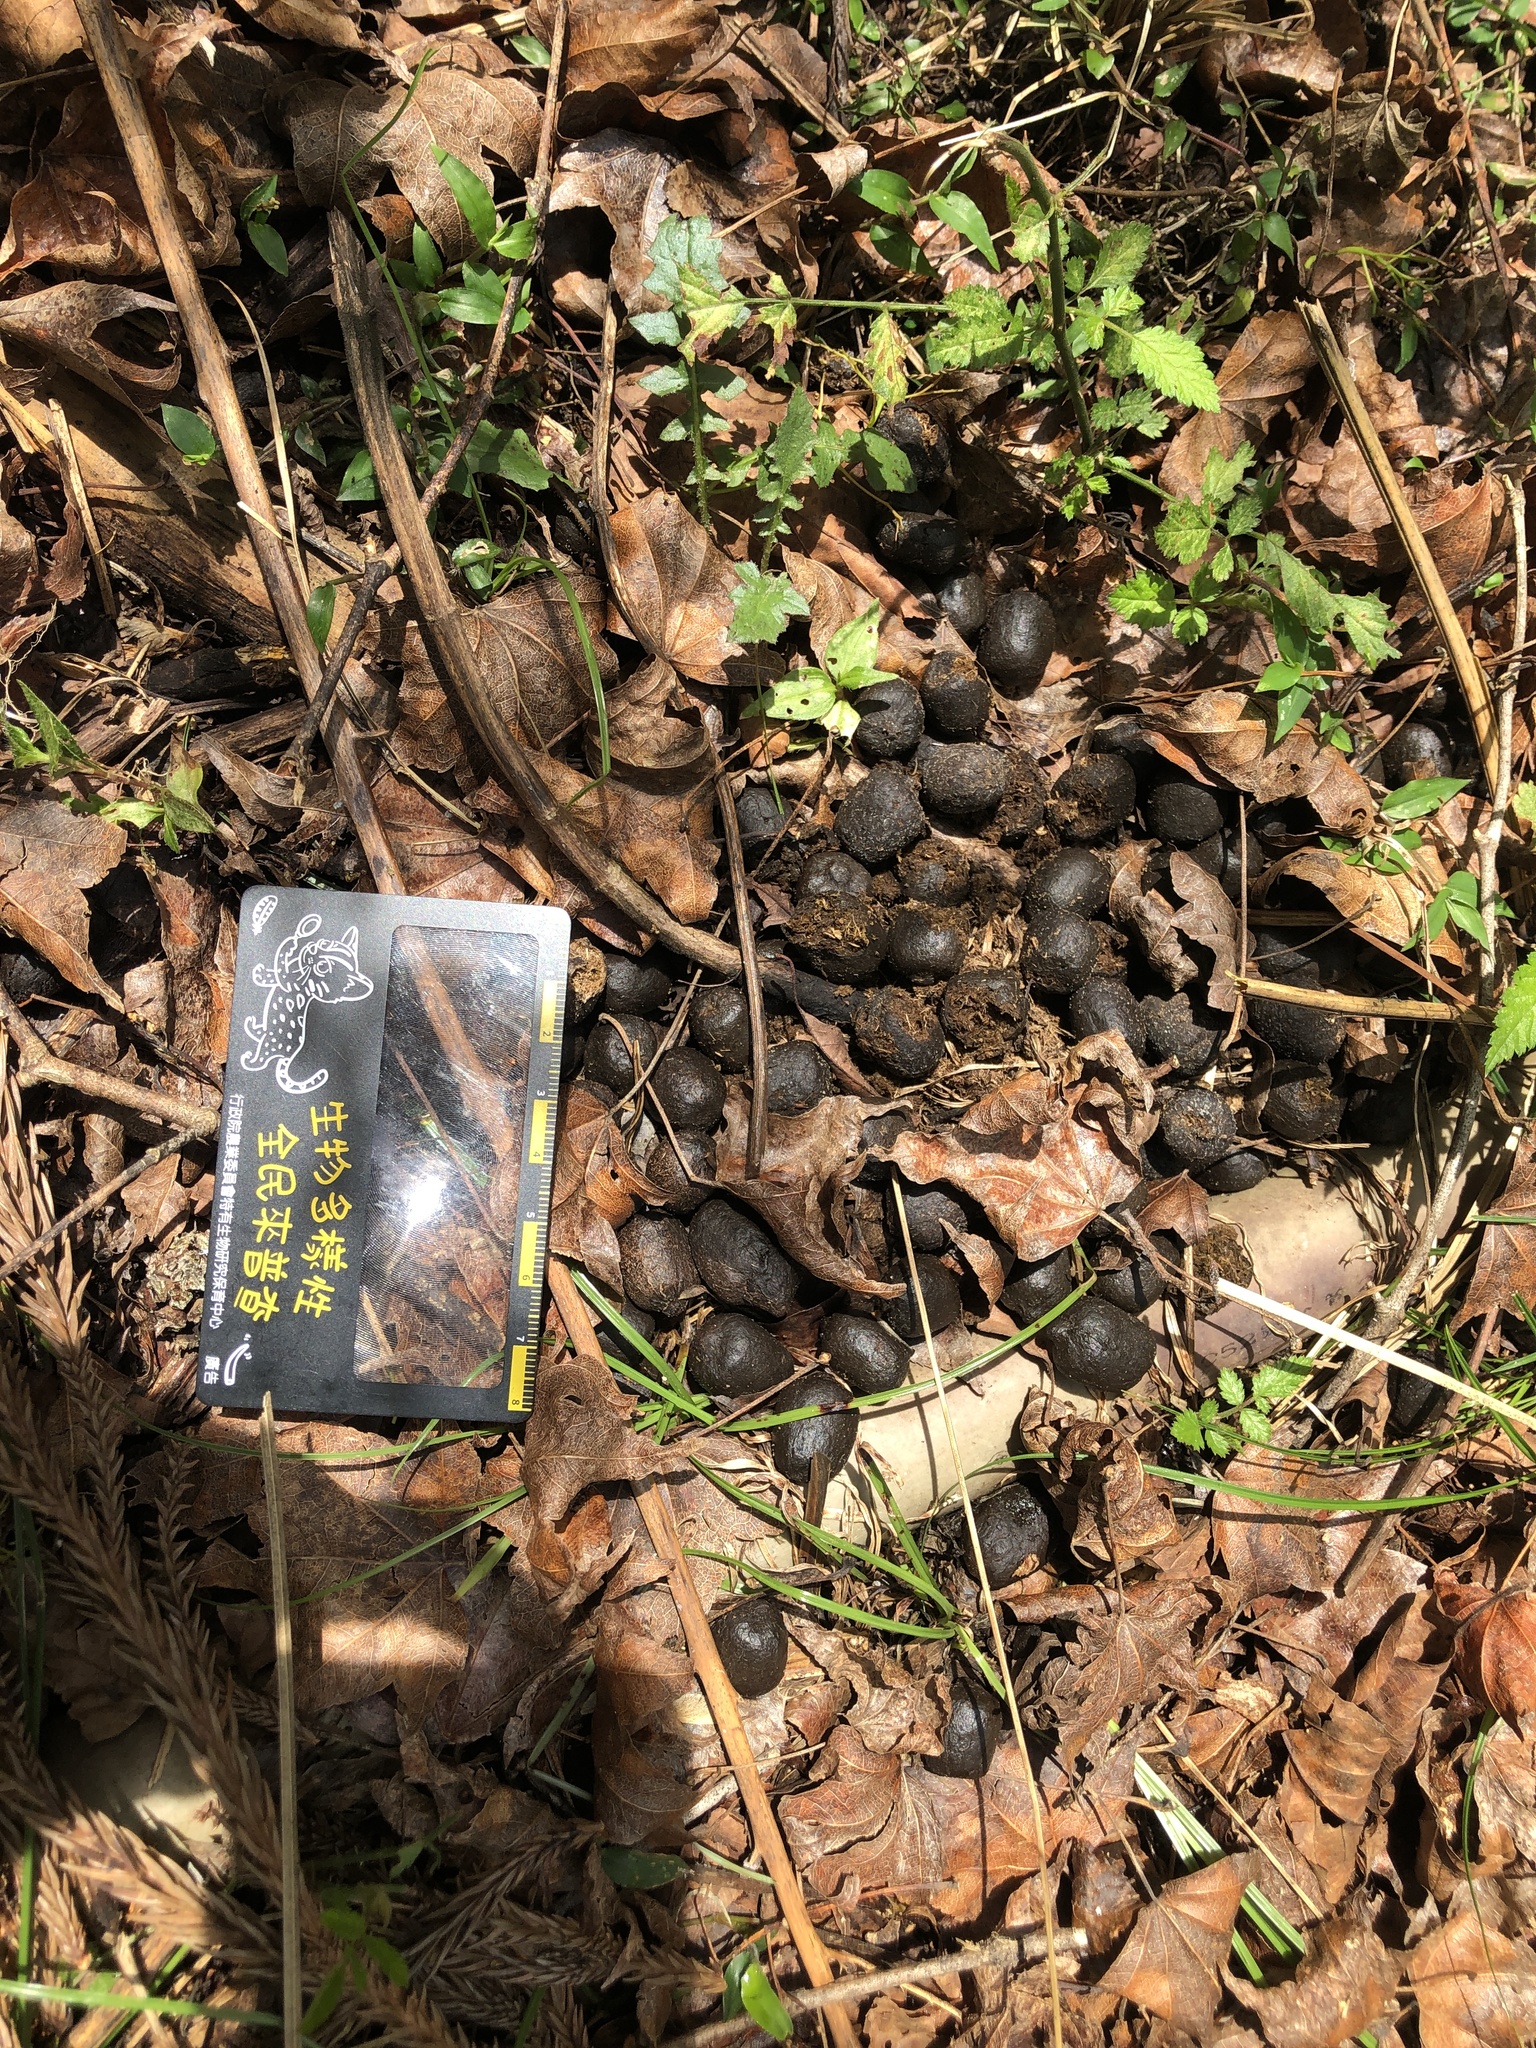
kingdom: Animalia
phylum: Chordata
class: Mammalia
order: Artiodactyla
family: Cervidae
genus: Rusa
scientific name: Rusa unicolor
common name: Sambar
